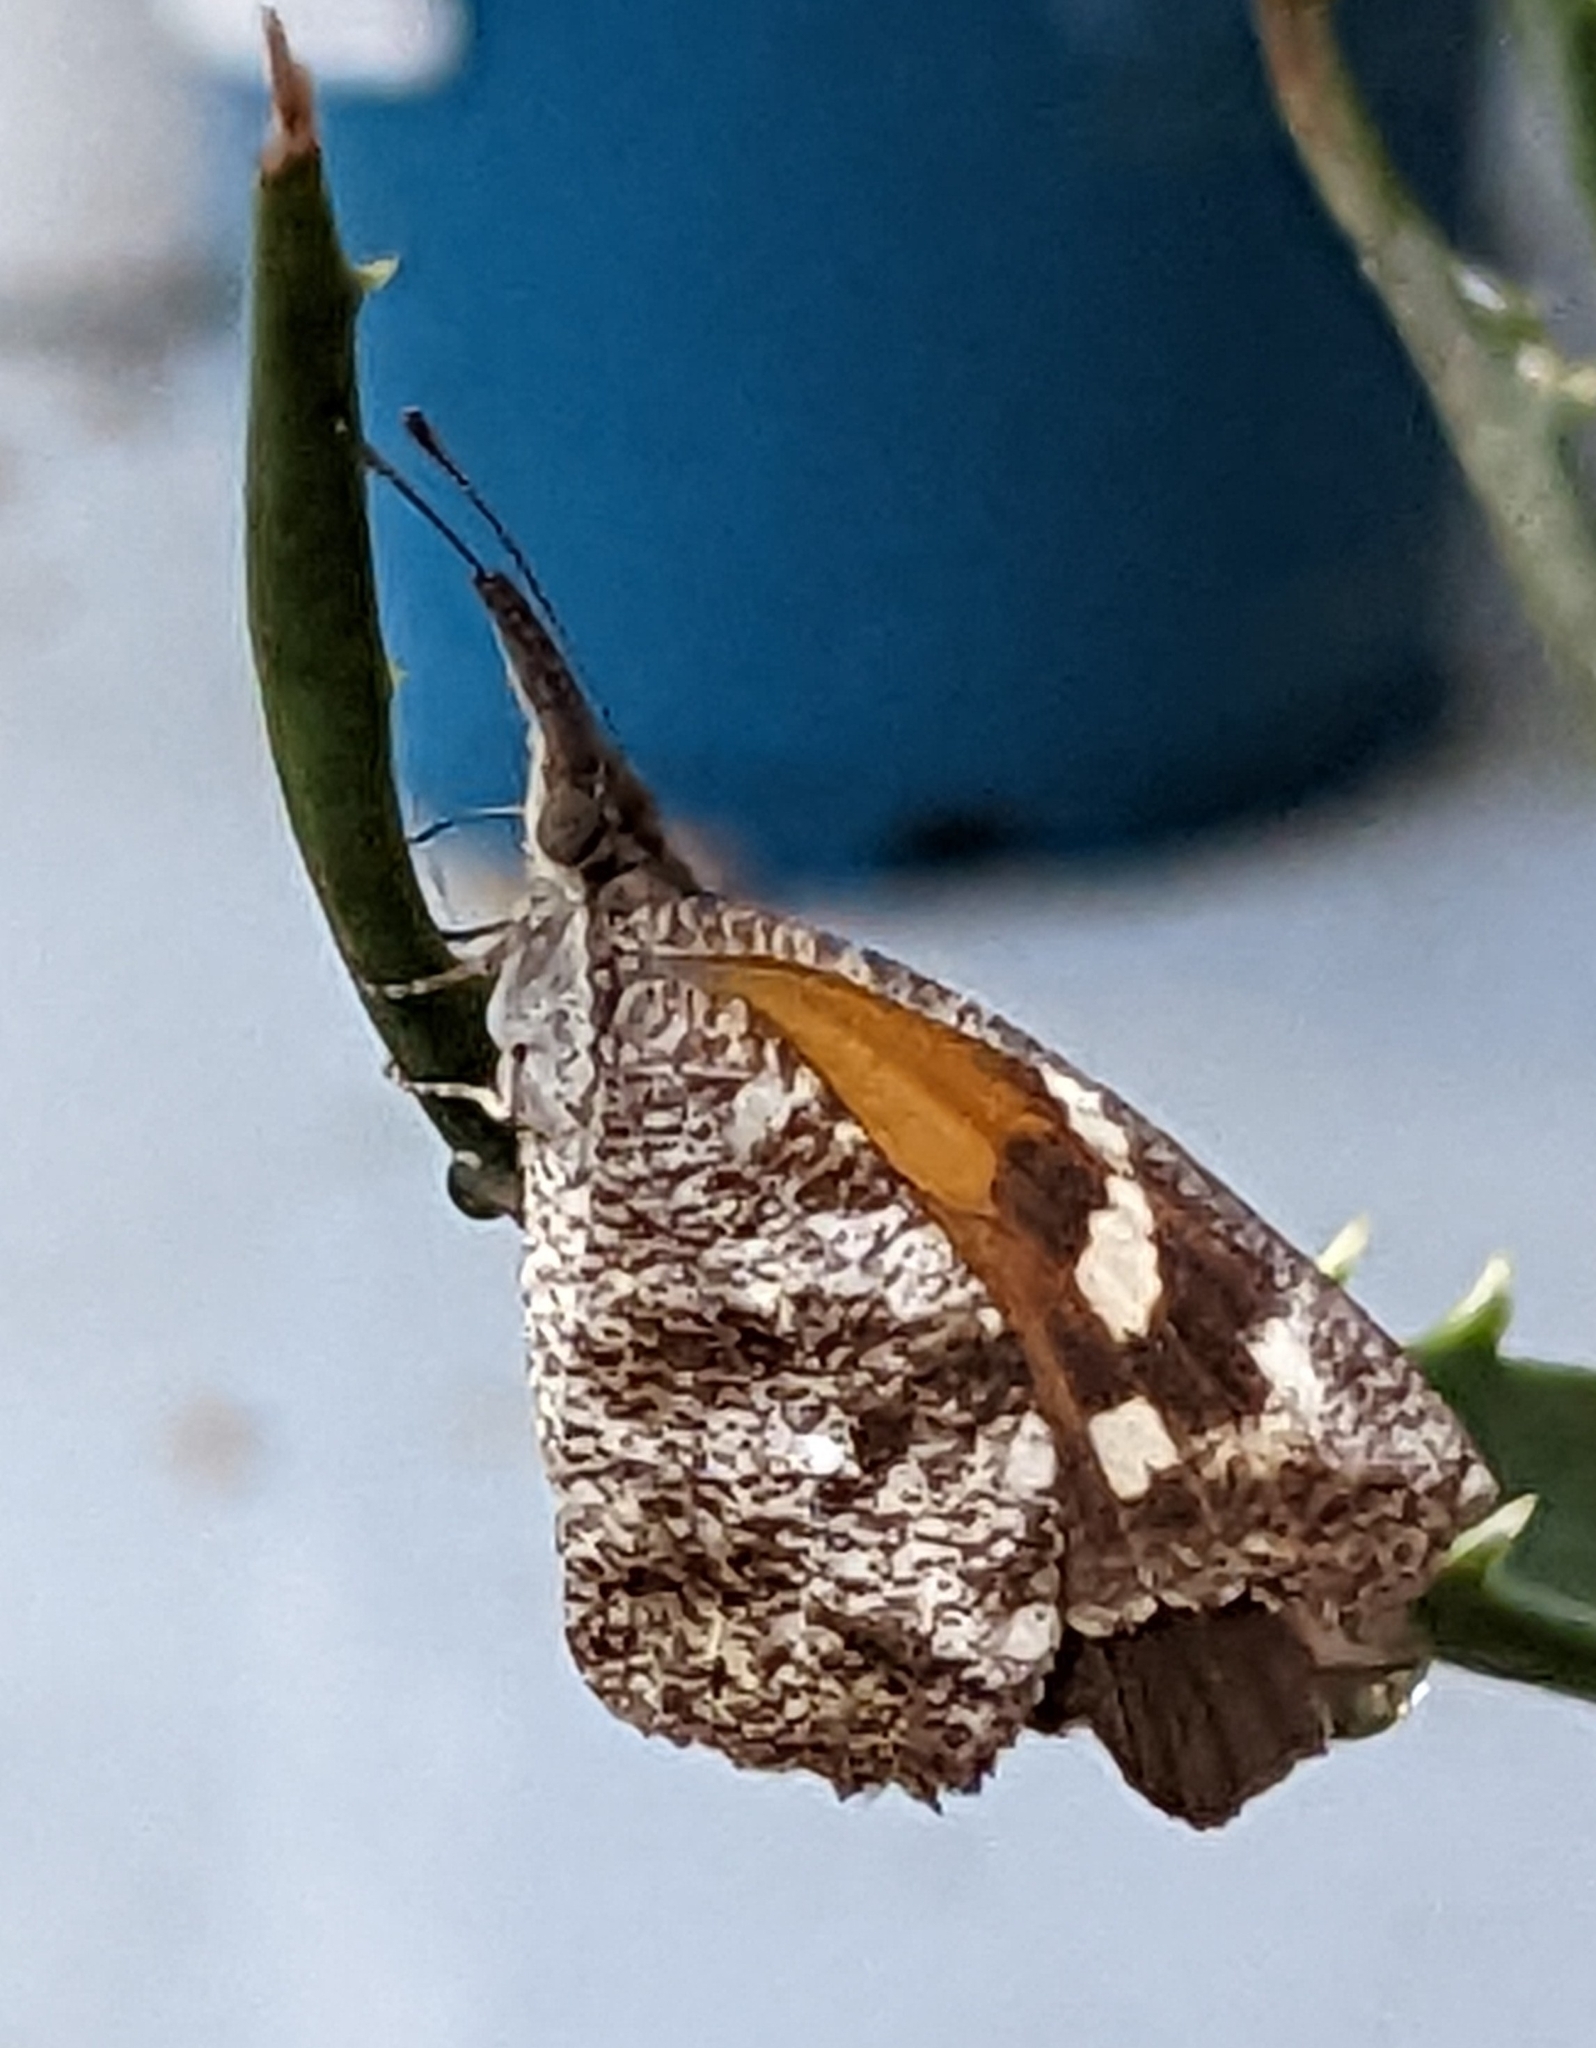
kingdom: Animalia
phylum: Arthropoda
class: Insecta
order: Lepidoptera
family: Nymphalidae
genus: Libytheana
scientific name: Libytheana carinenta
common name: American snout
